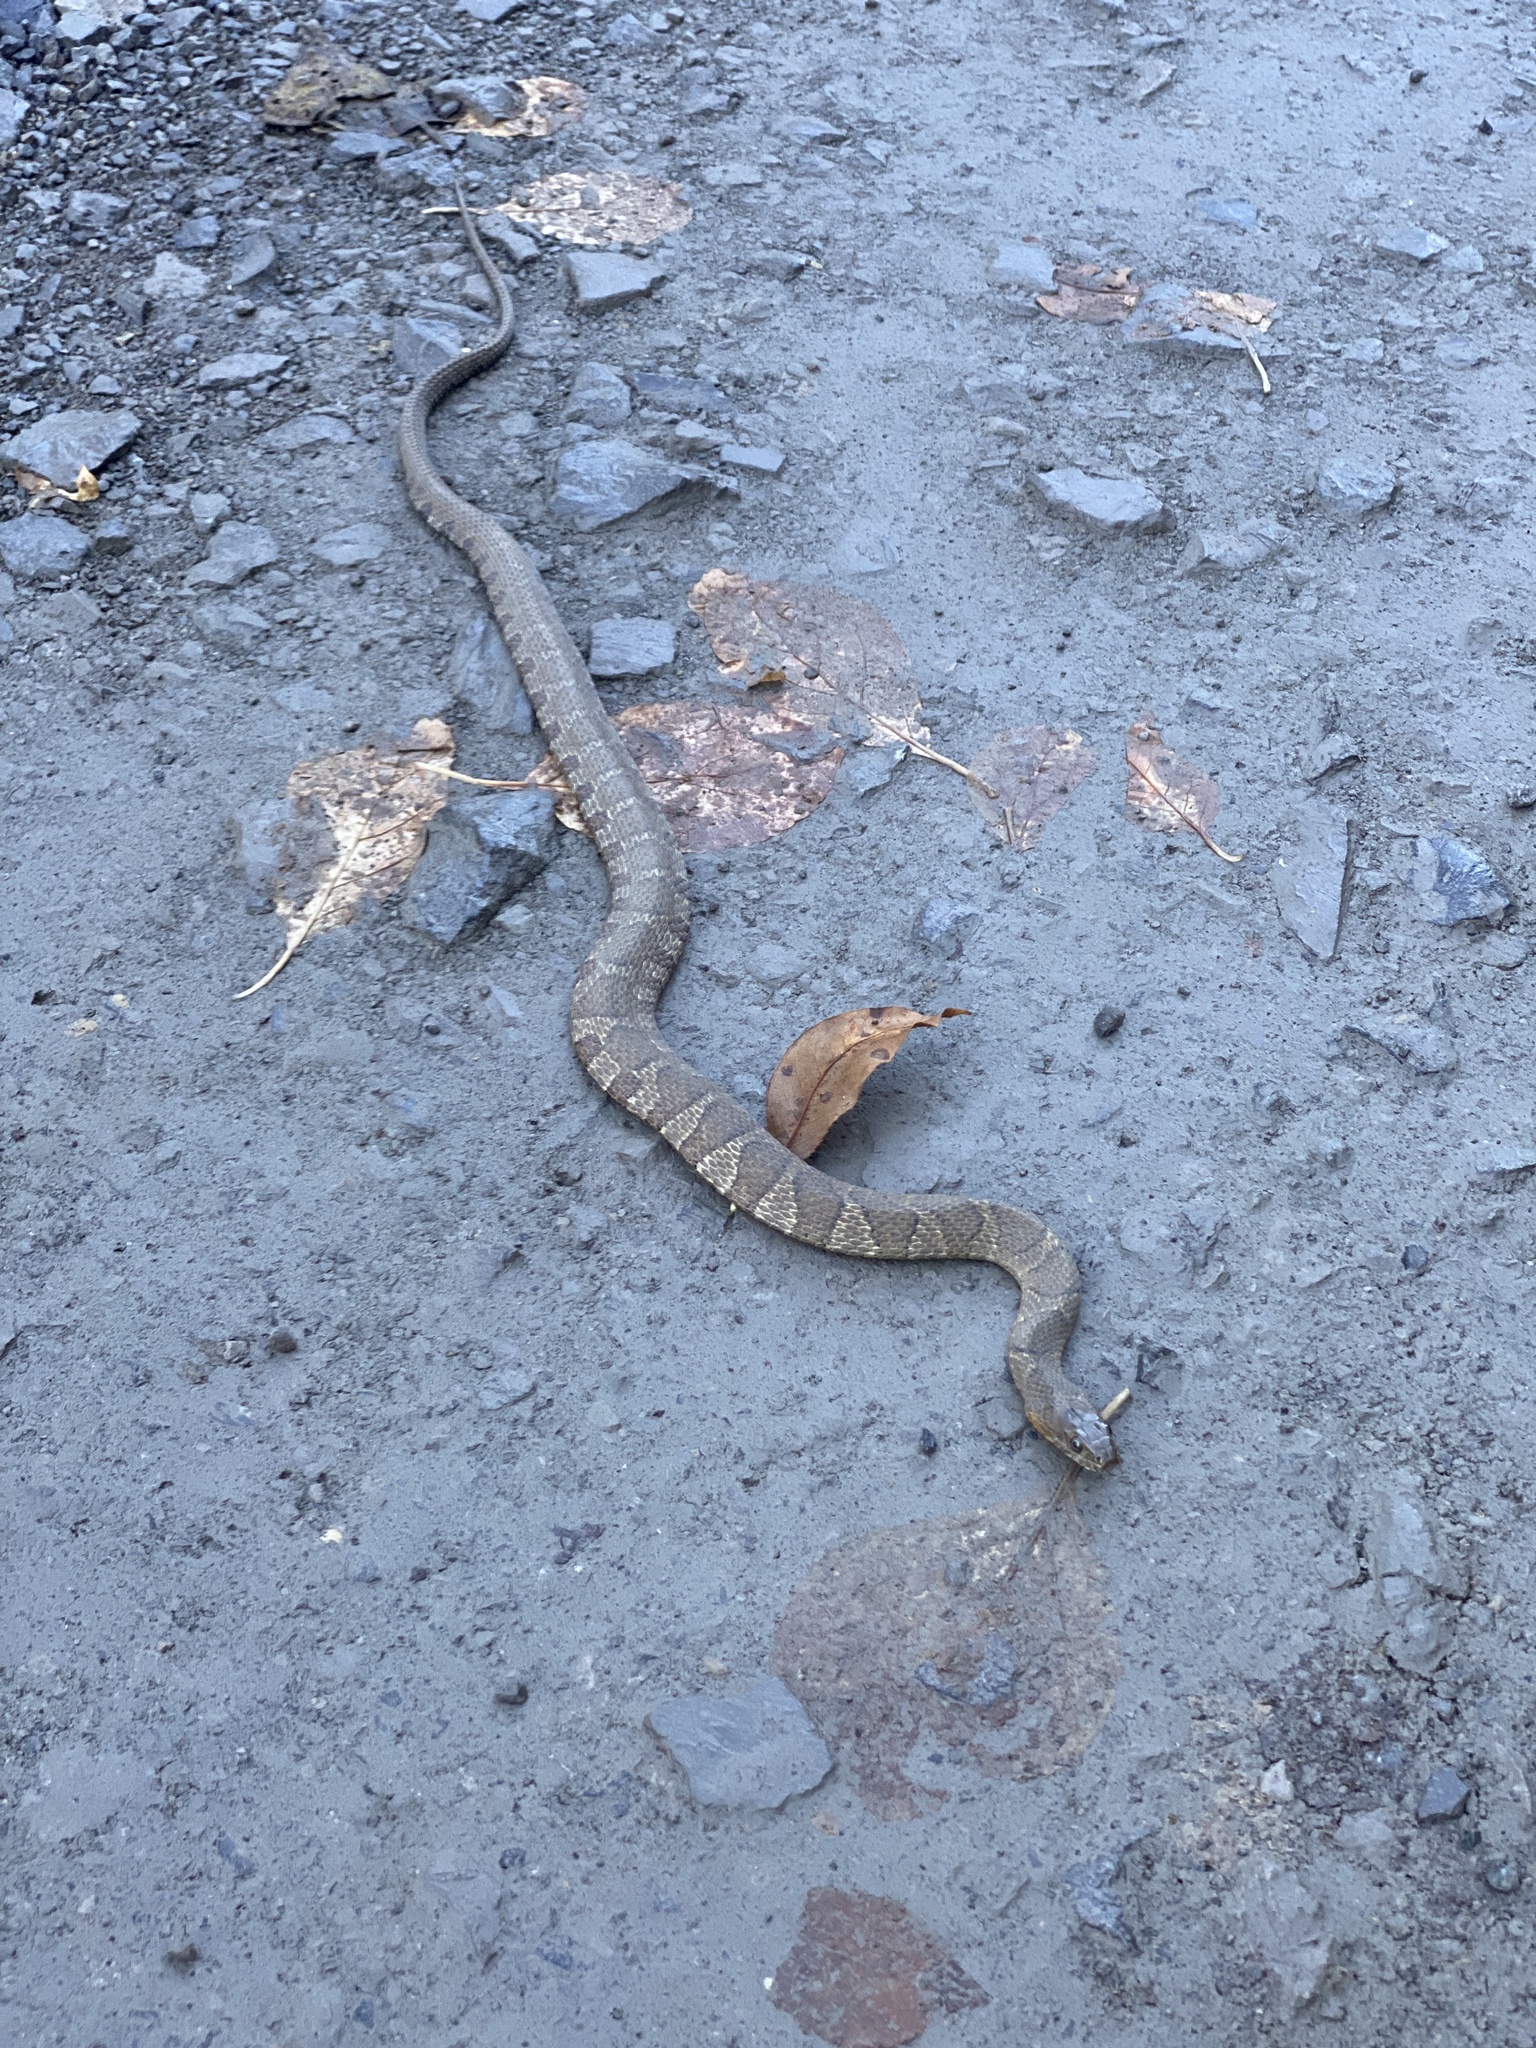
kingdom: Animalia
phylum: Chordata
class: Squamata
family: Colubridae
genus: Nerodia
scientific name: Nerodia sipedon
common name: Northern water snake
